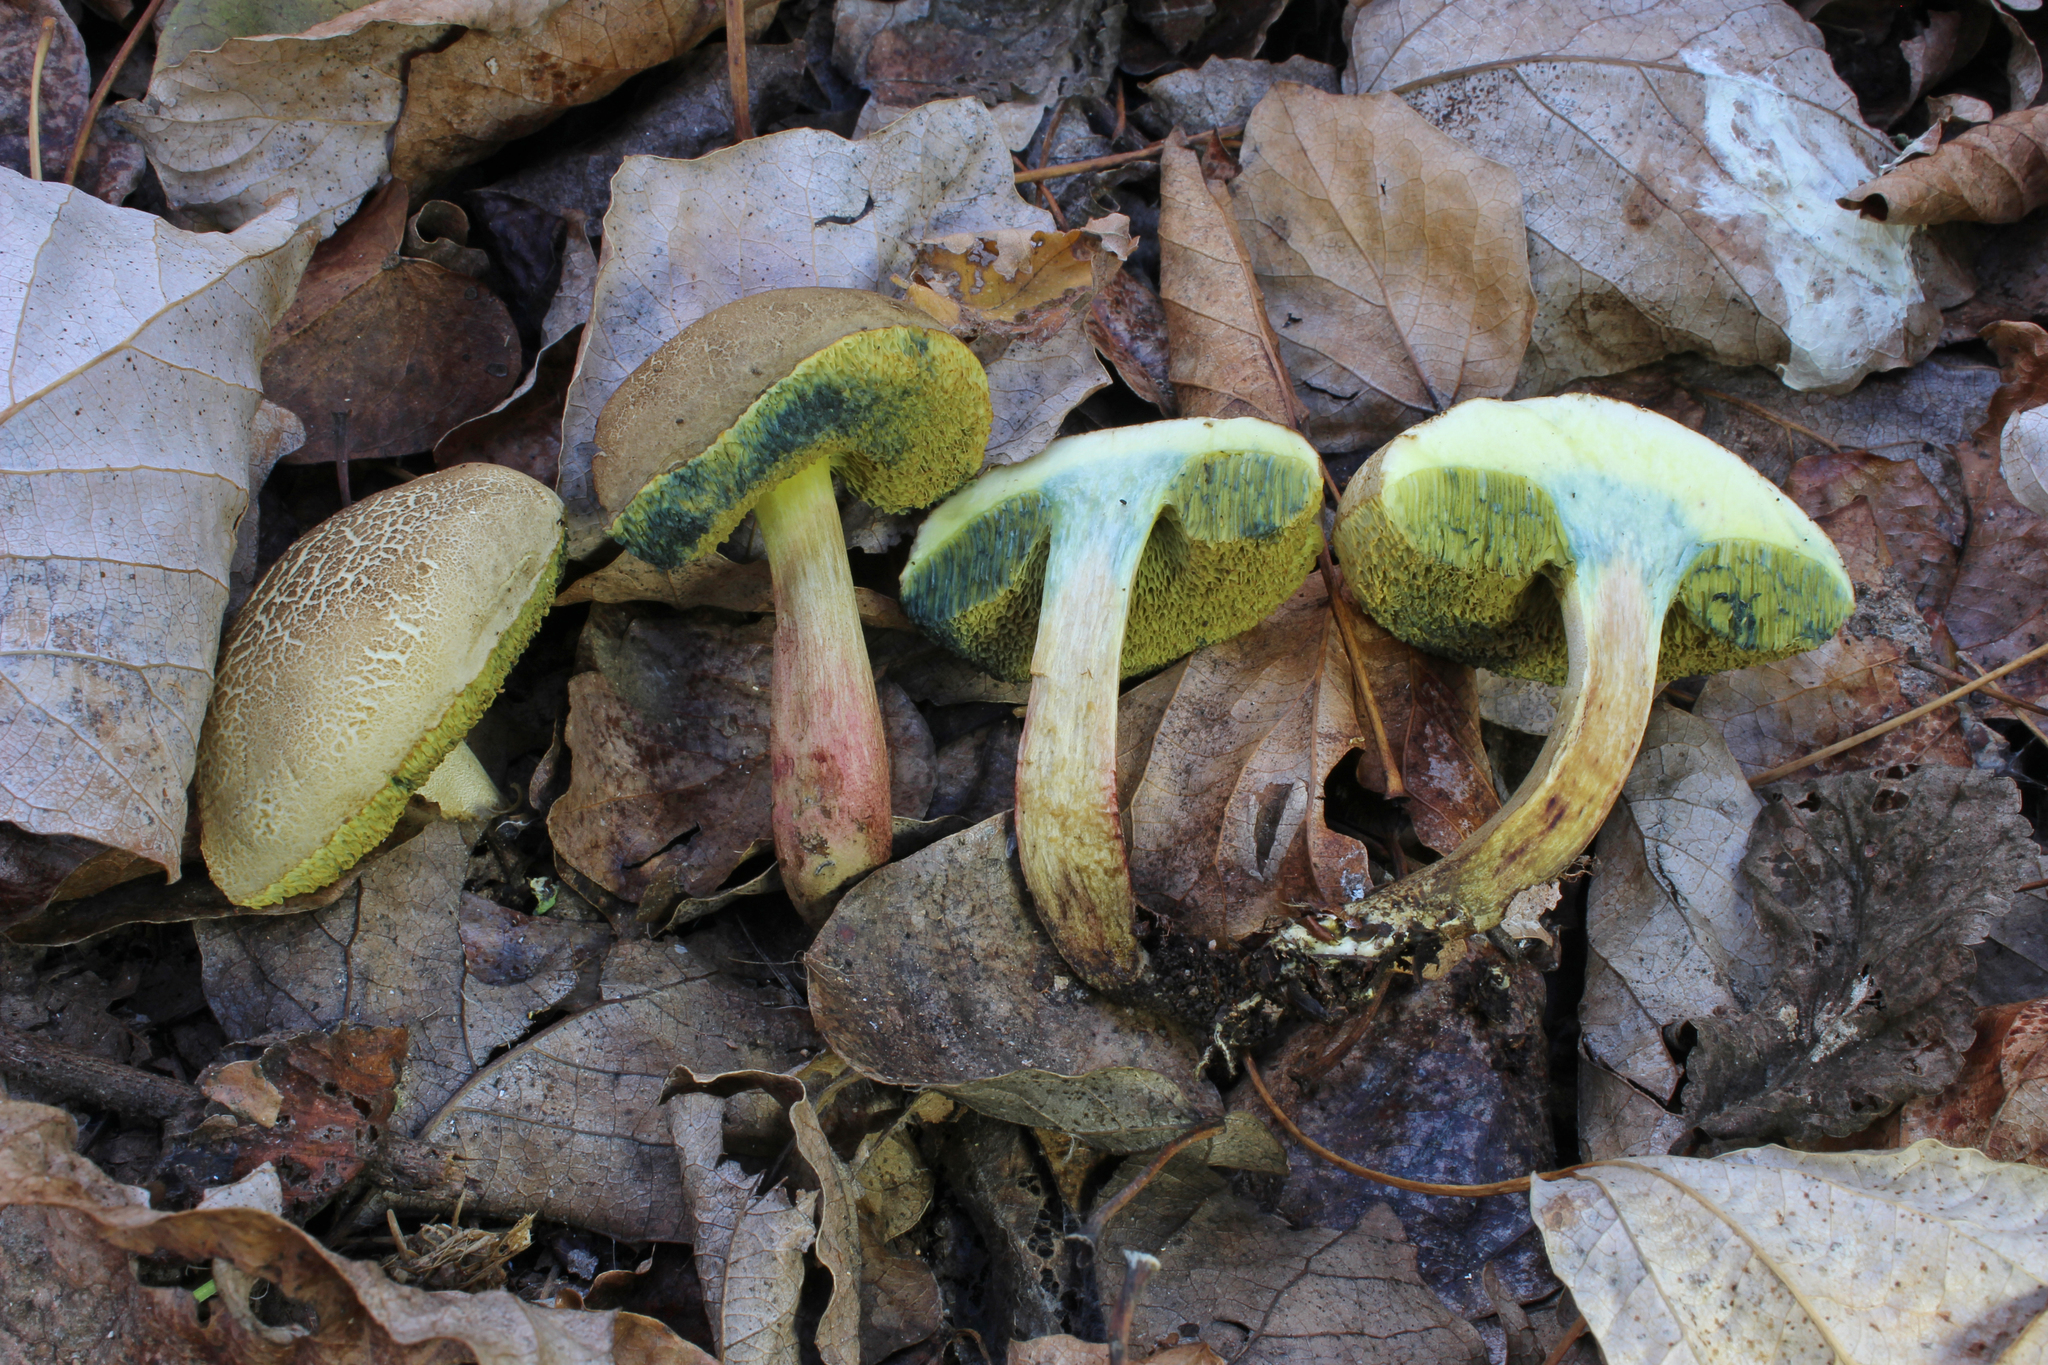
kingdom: Fungi
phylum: Basidiomycota
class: Agaricomycetes
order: Boletales
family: Boletaceae
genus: Xerocomellus
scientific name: Xerocomellus porosporus
